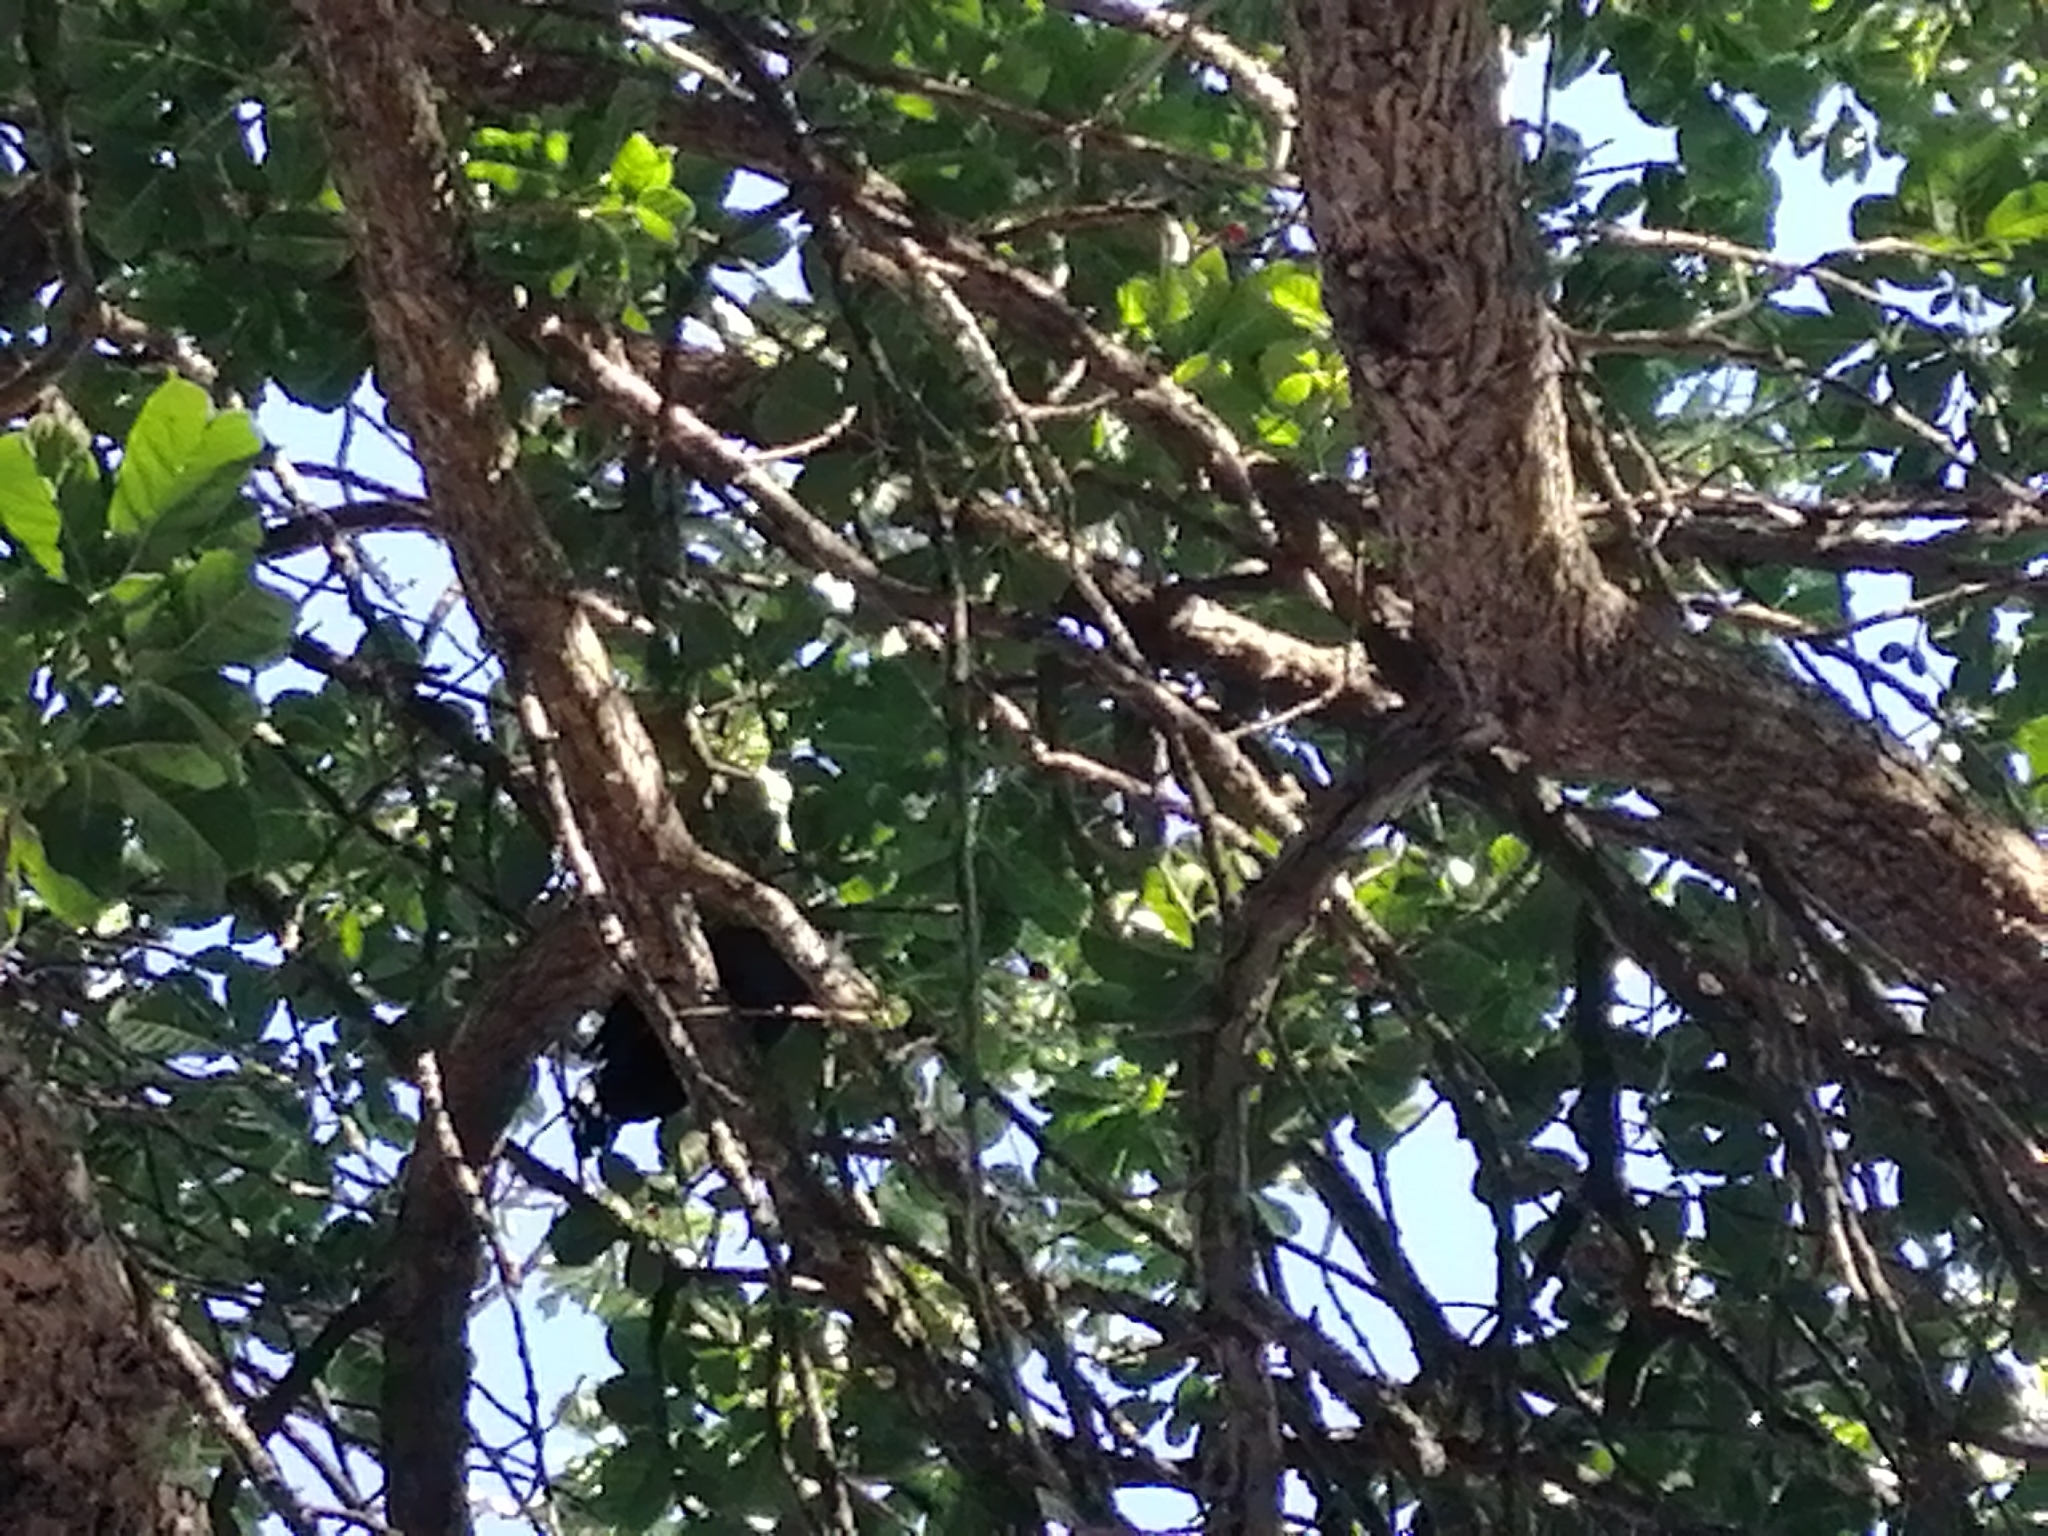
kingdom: Animalia
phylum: Chordata
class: Aves
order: Passeriformes
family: Meliphagidae
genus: Prosthemadera
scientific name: Prosthemadera novaeseelandiae
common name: Tui
